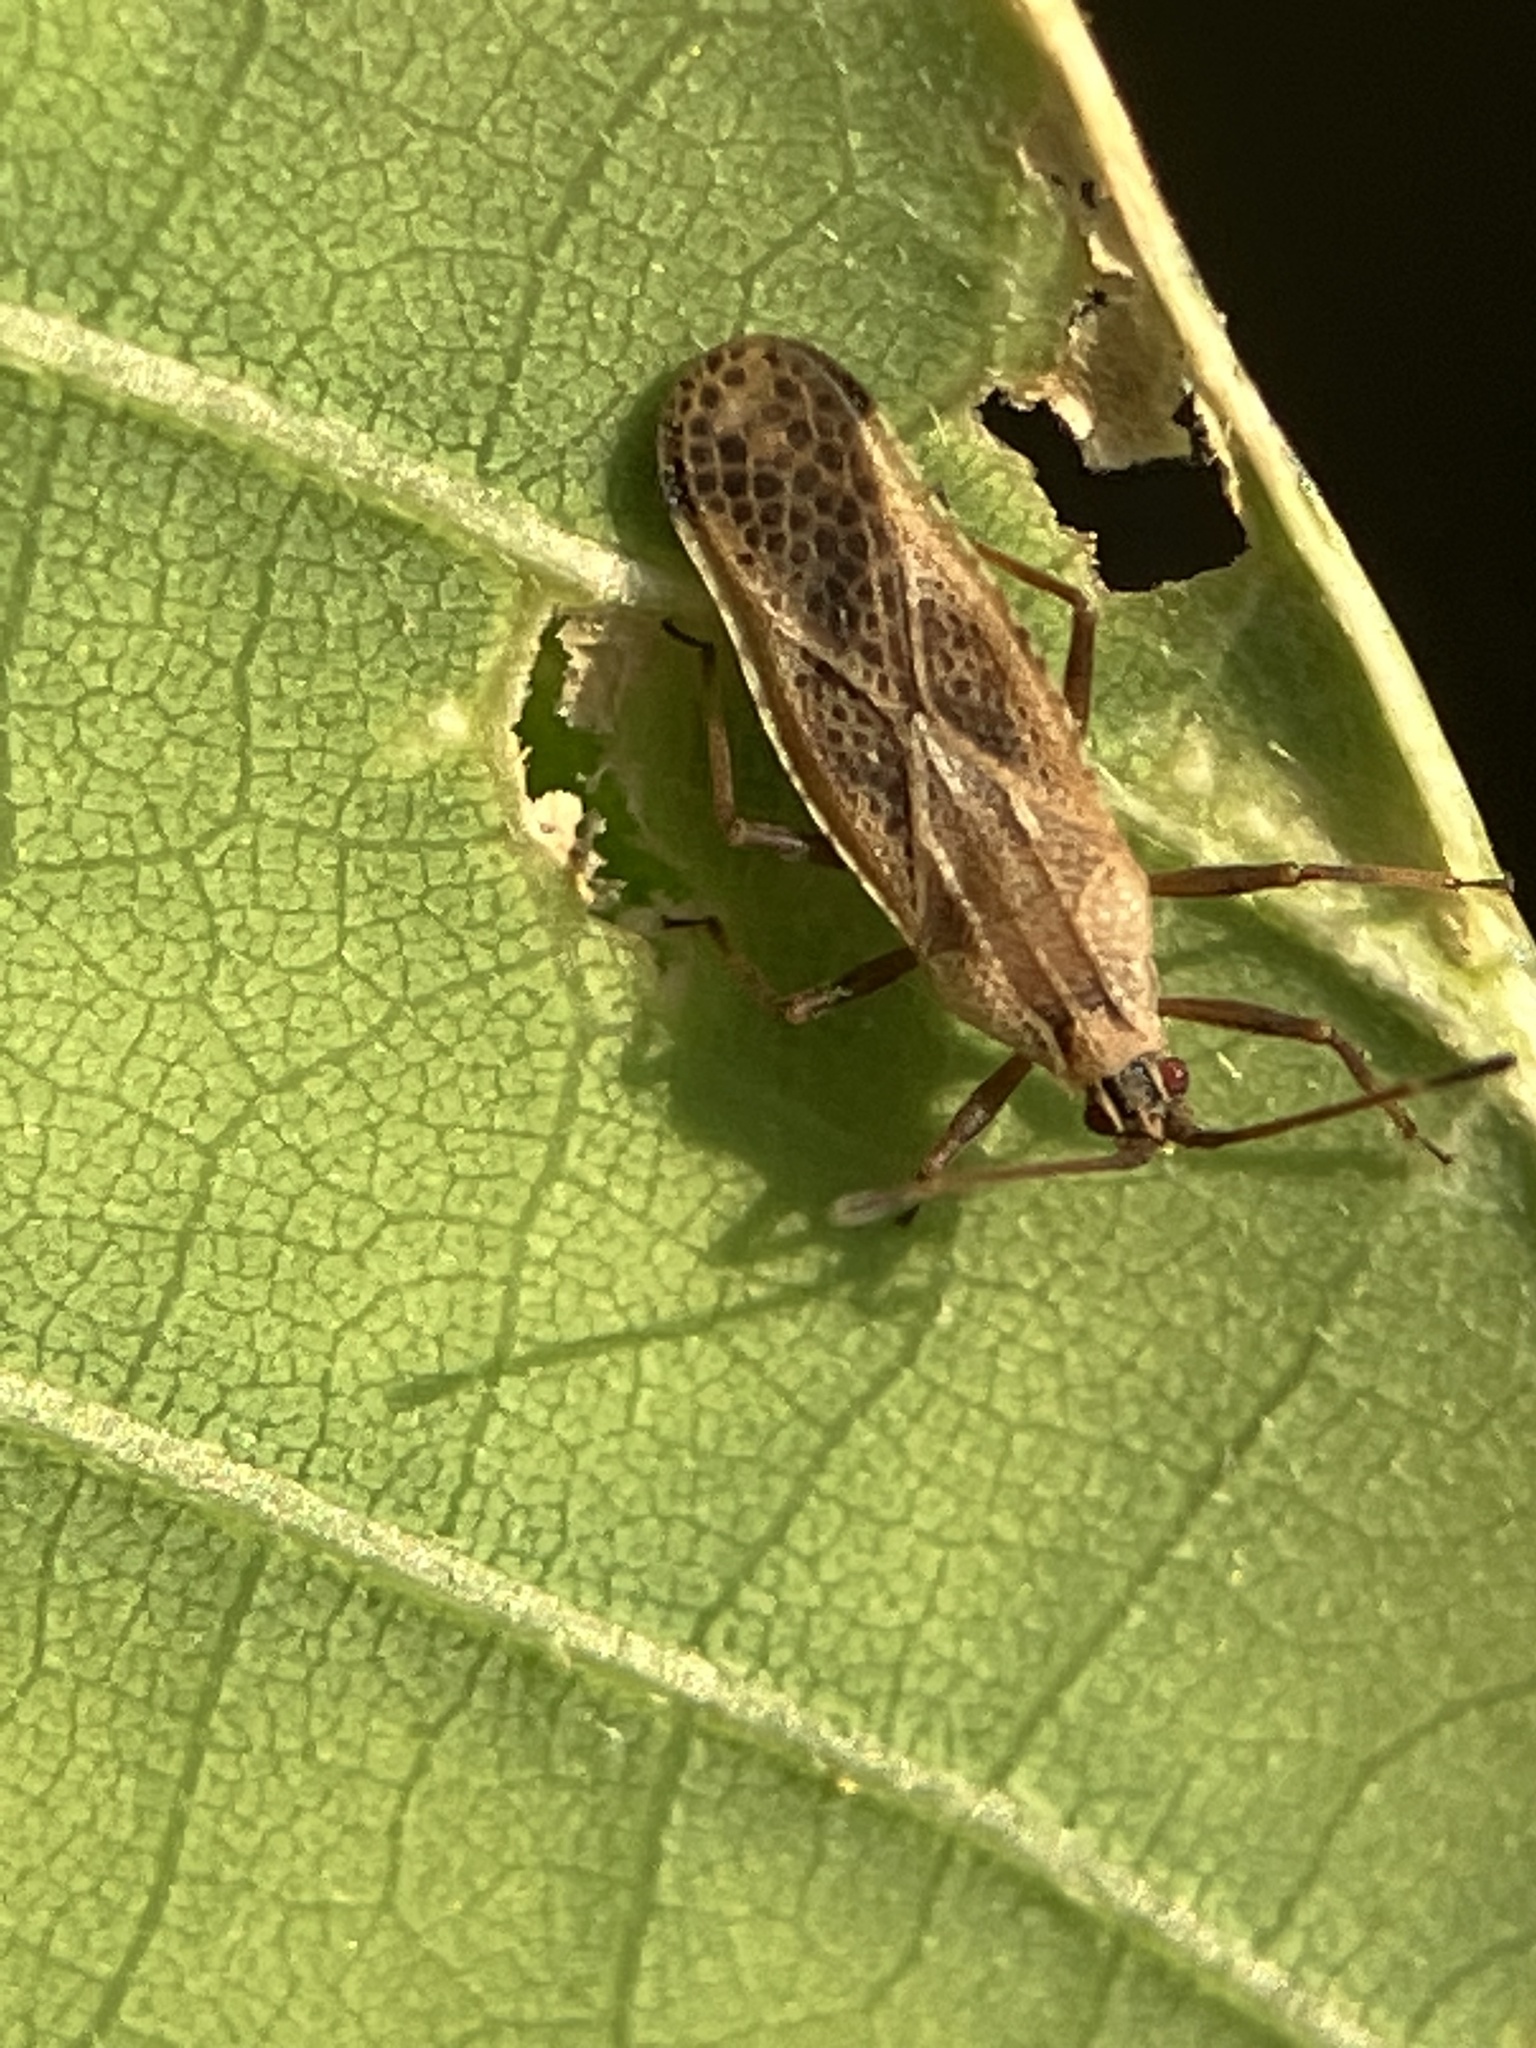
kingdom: Animalia
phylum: Arthropoda
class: Insecta
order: Hemiptera
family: Tingidae
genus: Cysteochila
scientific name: Cysteochila delineata
